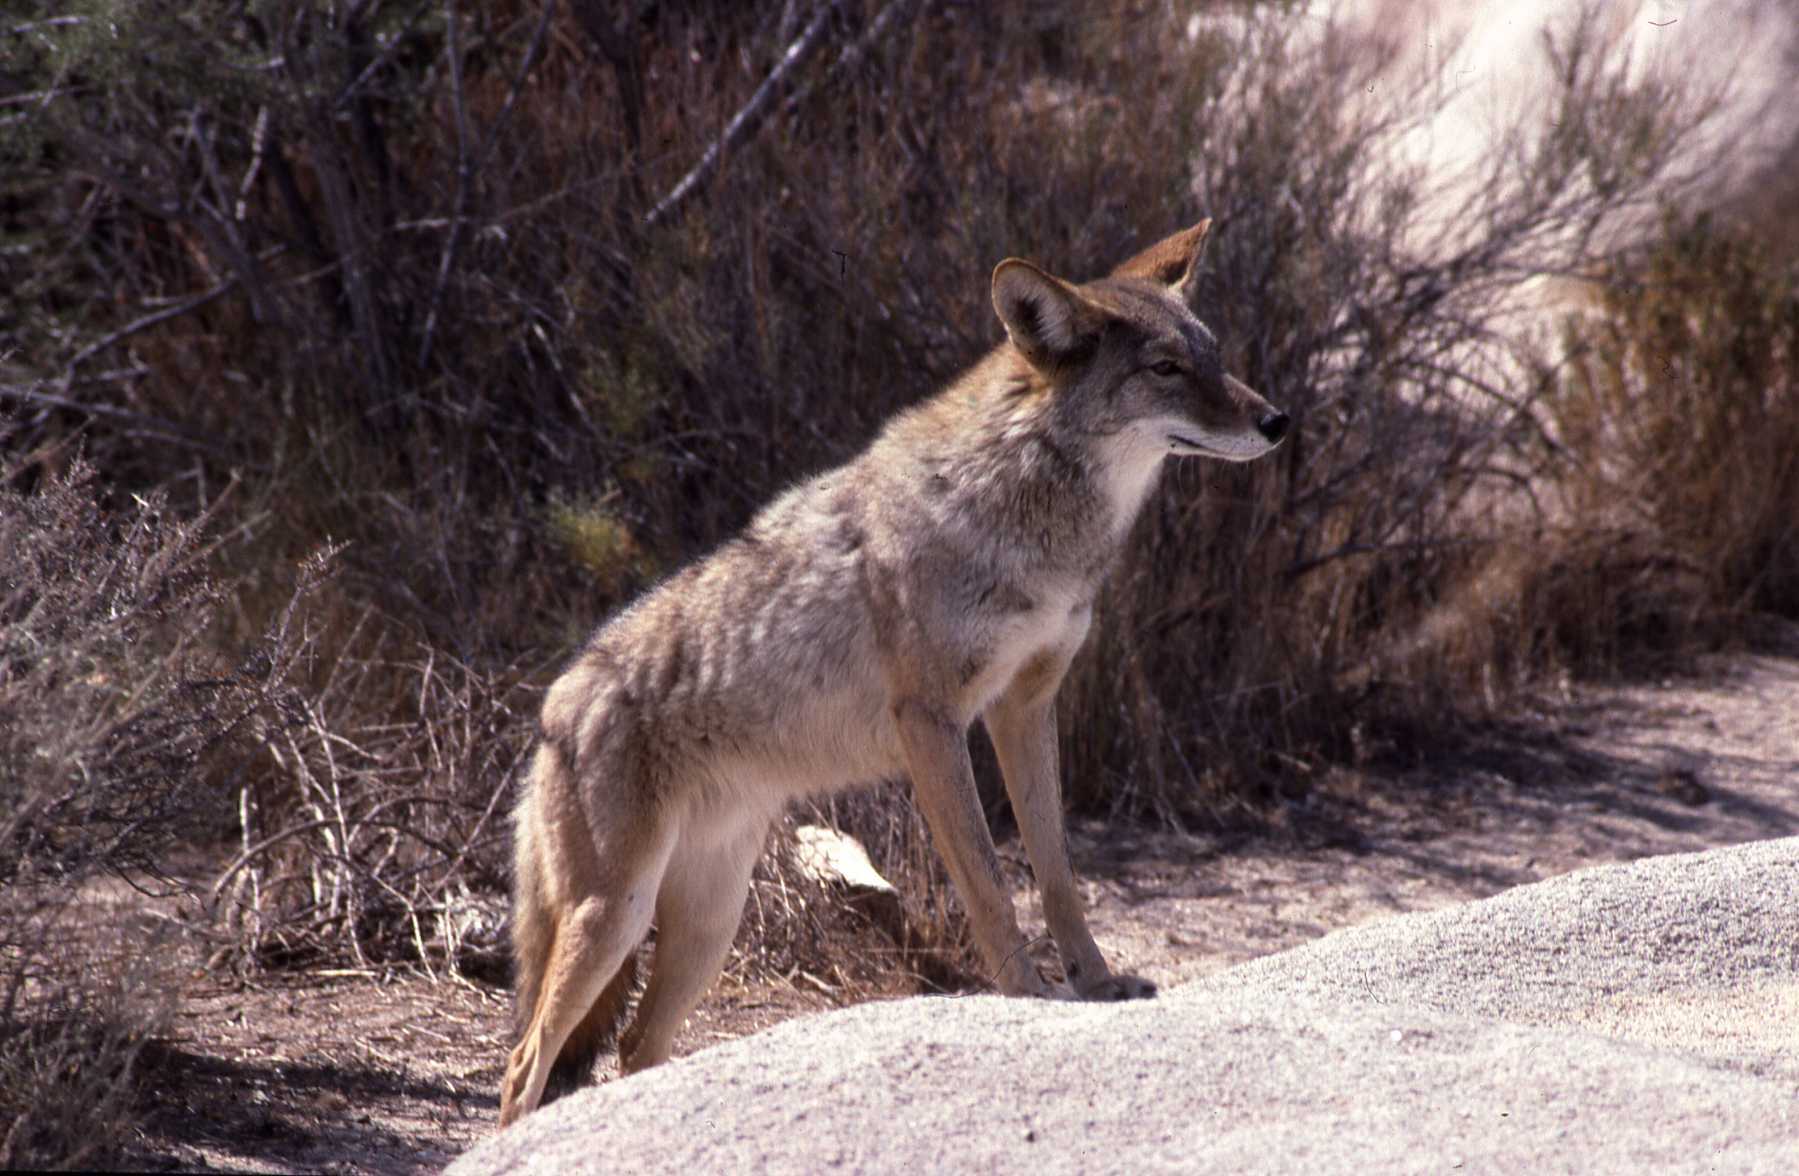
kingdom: Animalia
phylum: Chordata
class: Mammalia
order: Carnivora
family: Canidae
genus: Canis
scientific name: Canis latrans
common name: Coyote
